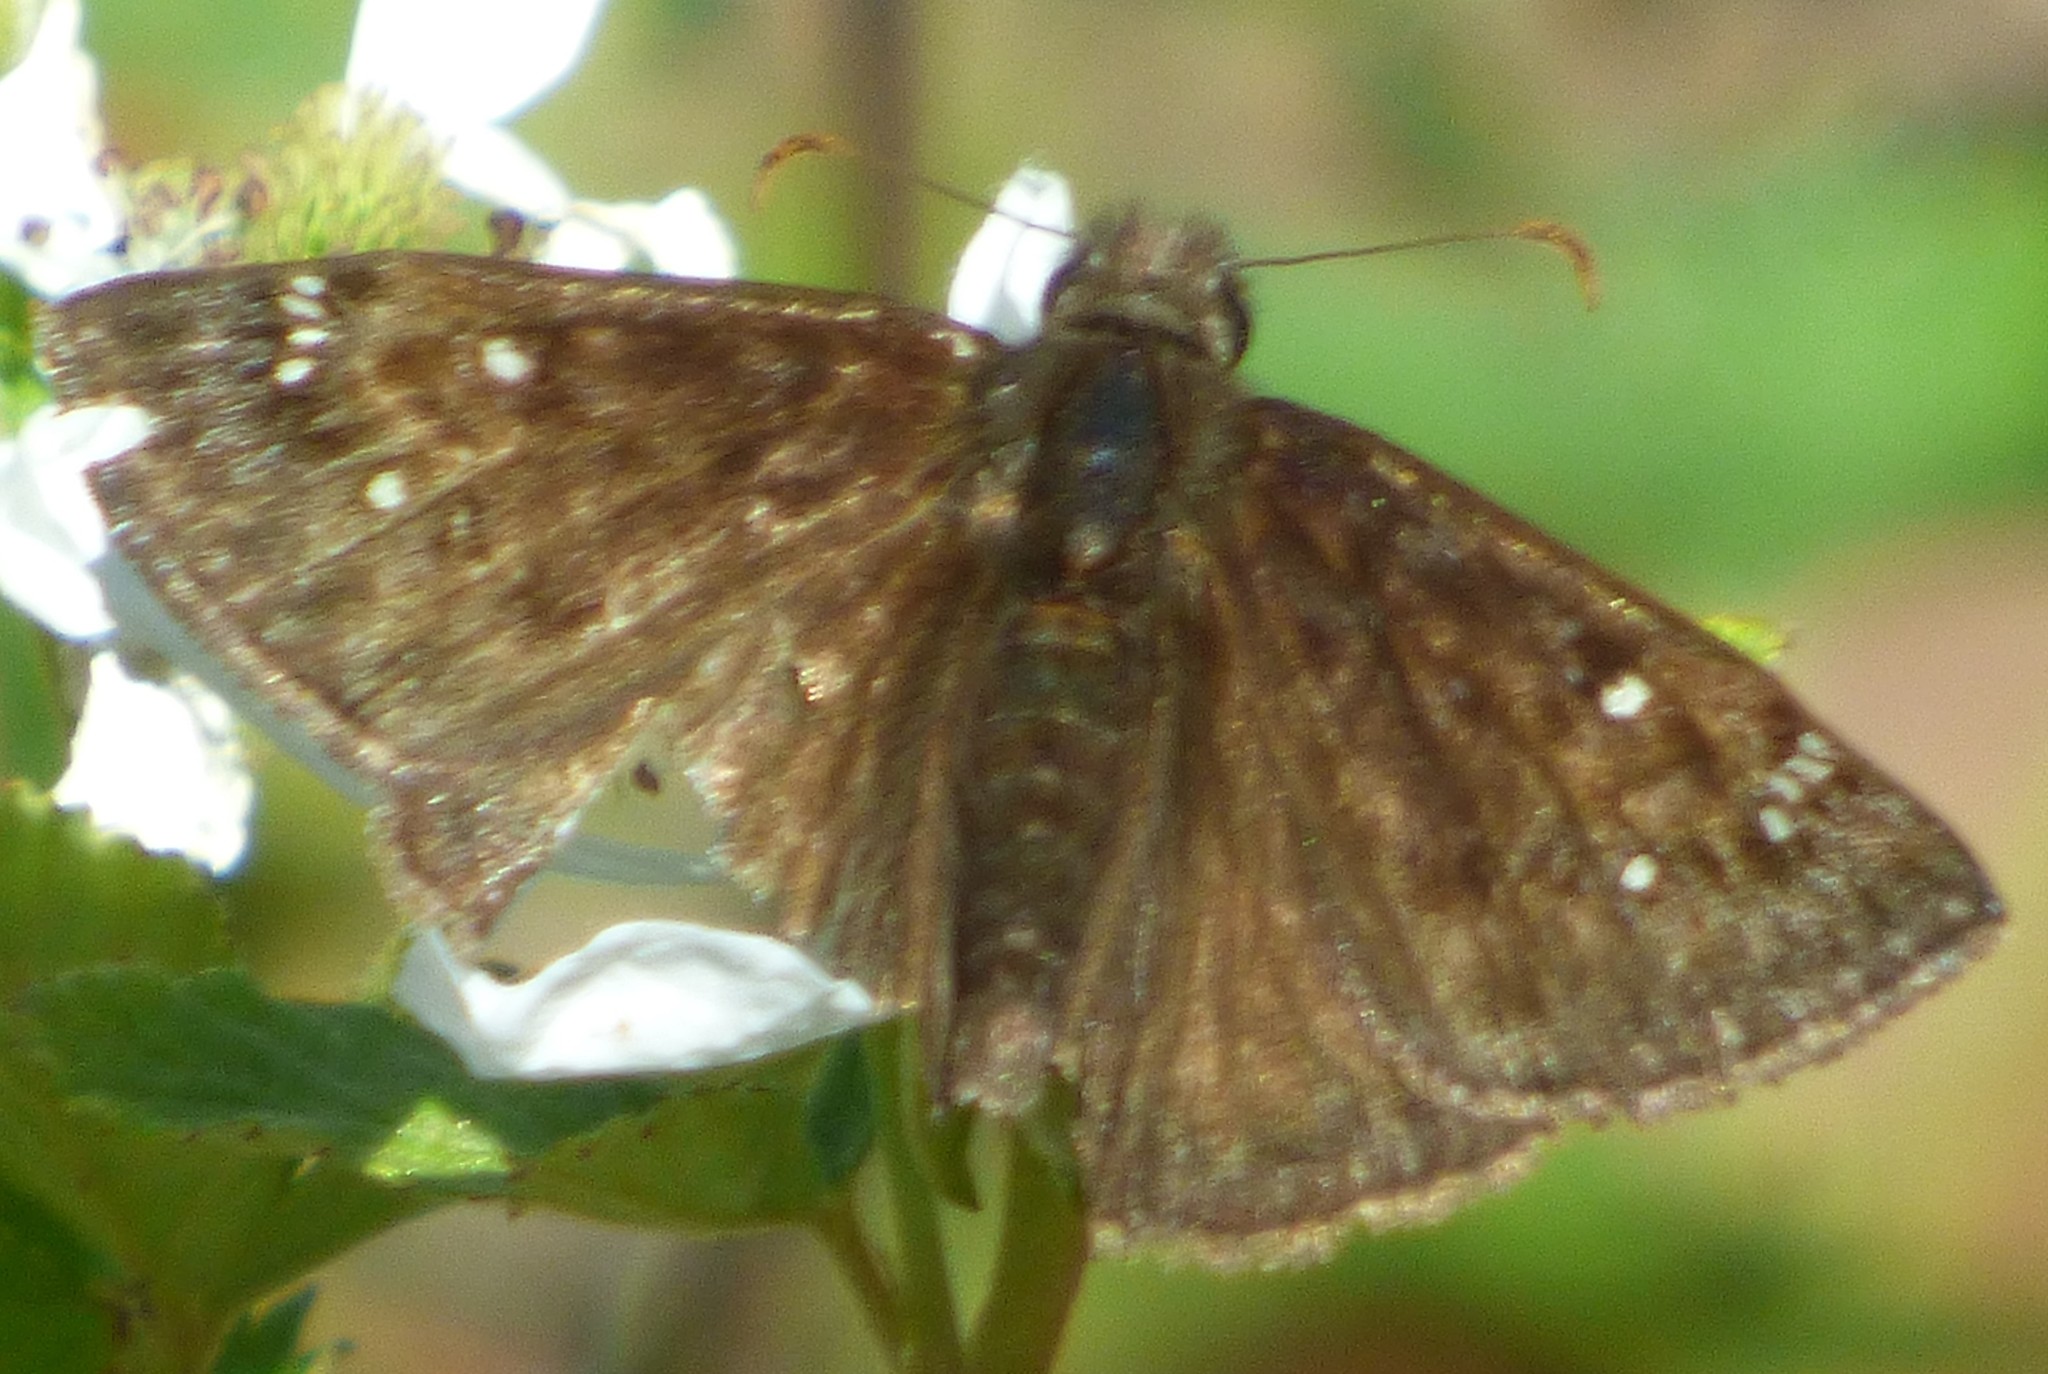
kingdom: Animalia
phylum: Arthropoda
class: Insecta
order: Lepidoptera
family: Hesperiidae
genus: Erynnis
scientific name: Erynnis horatius
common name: Horace's duskywing
